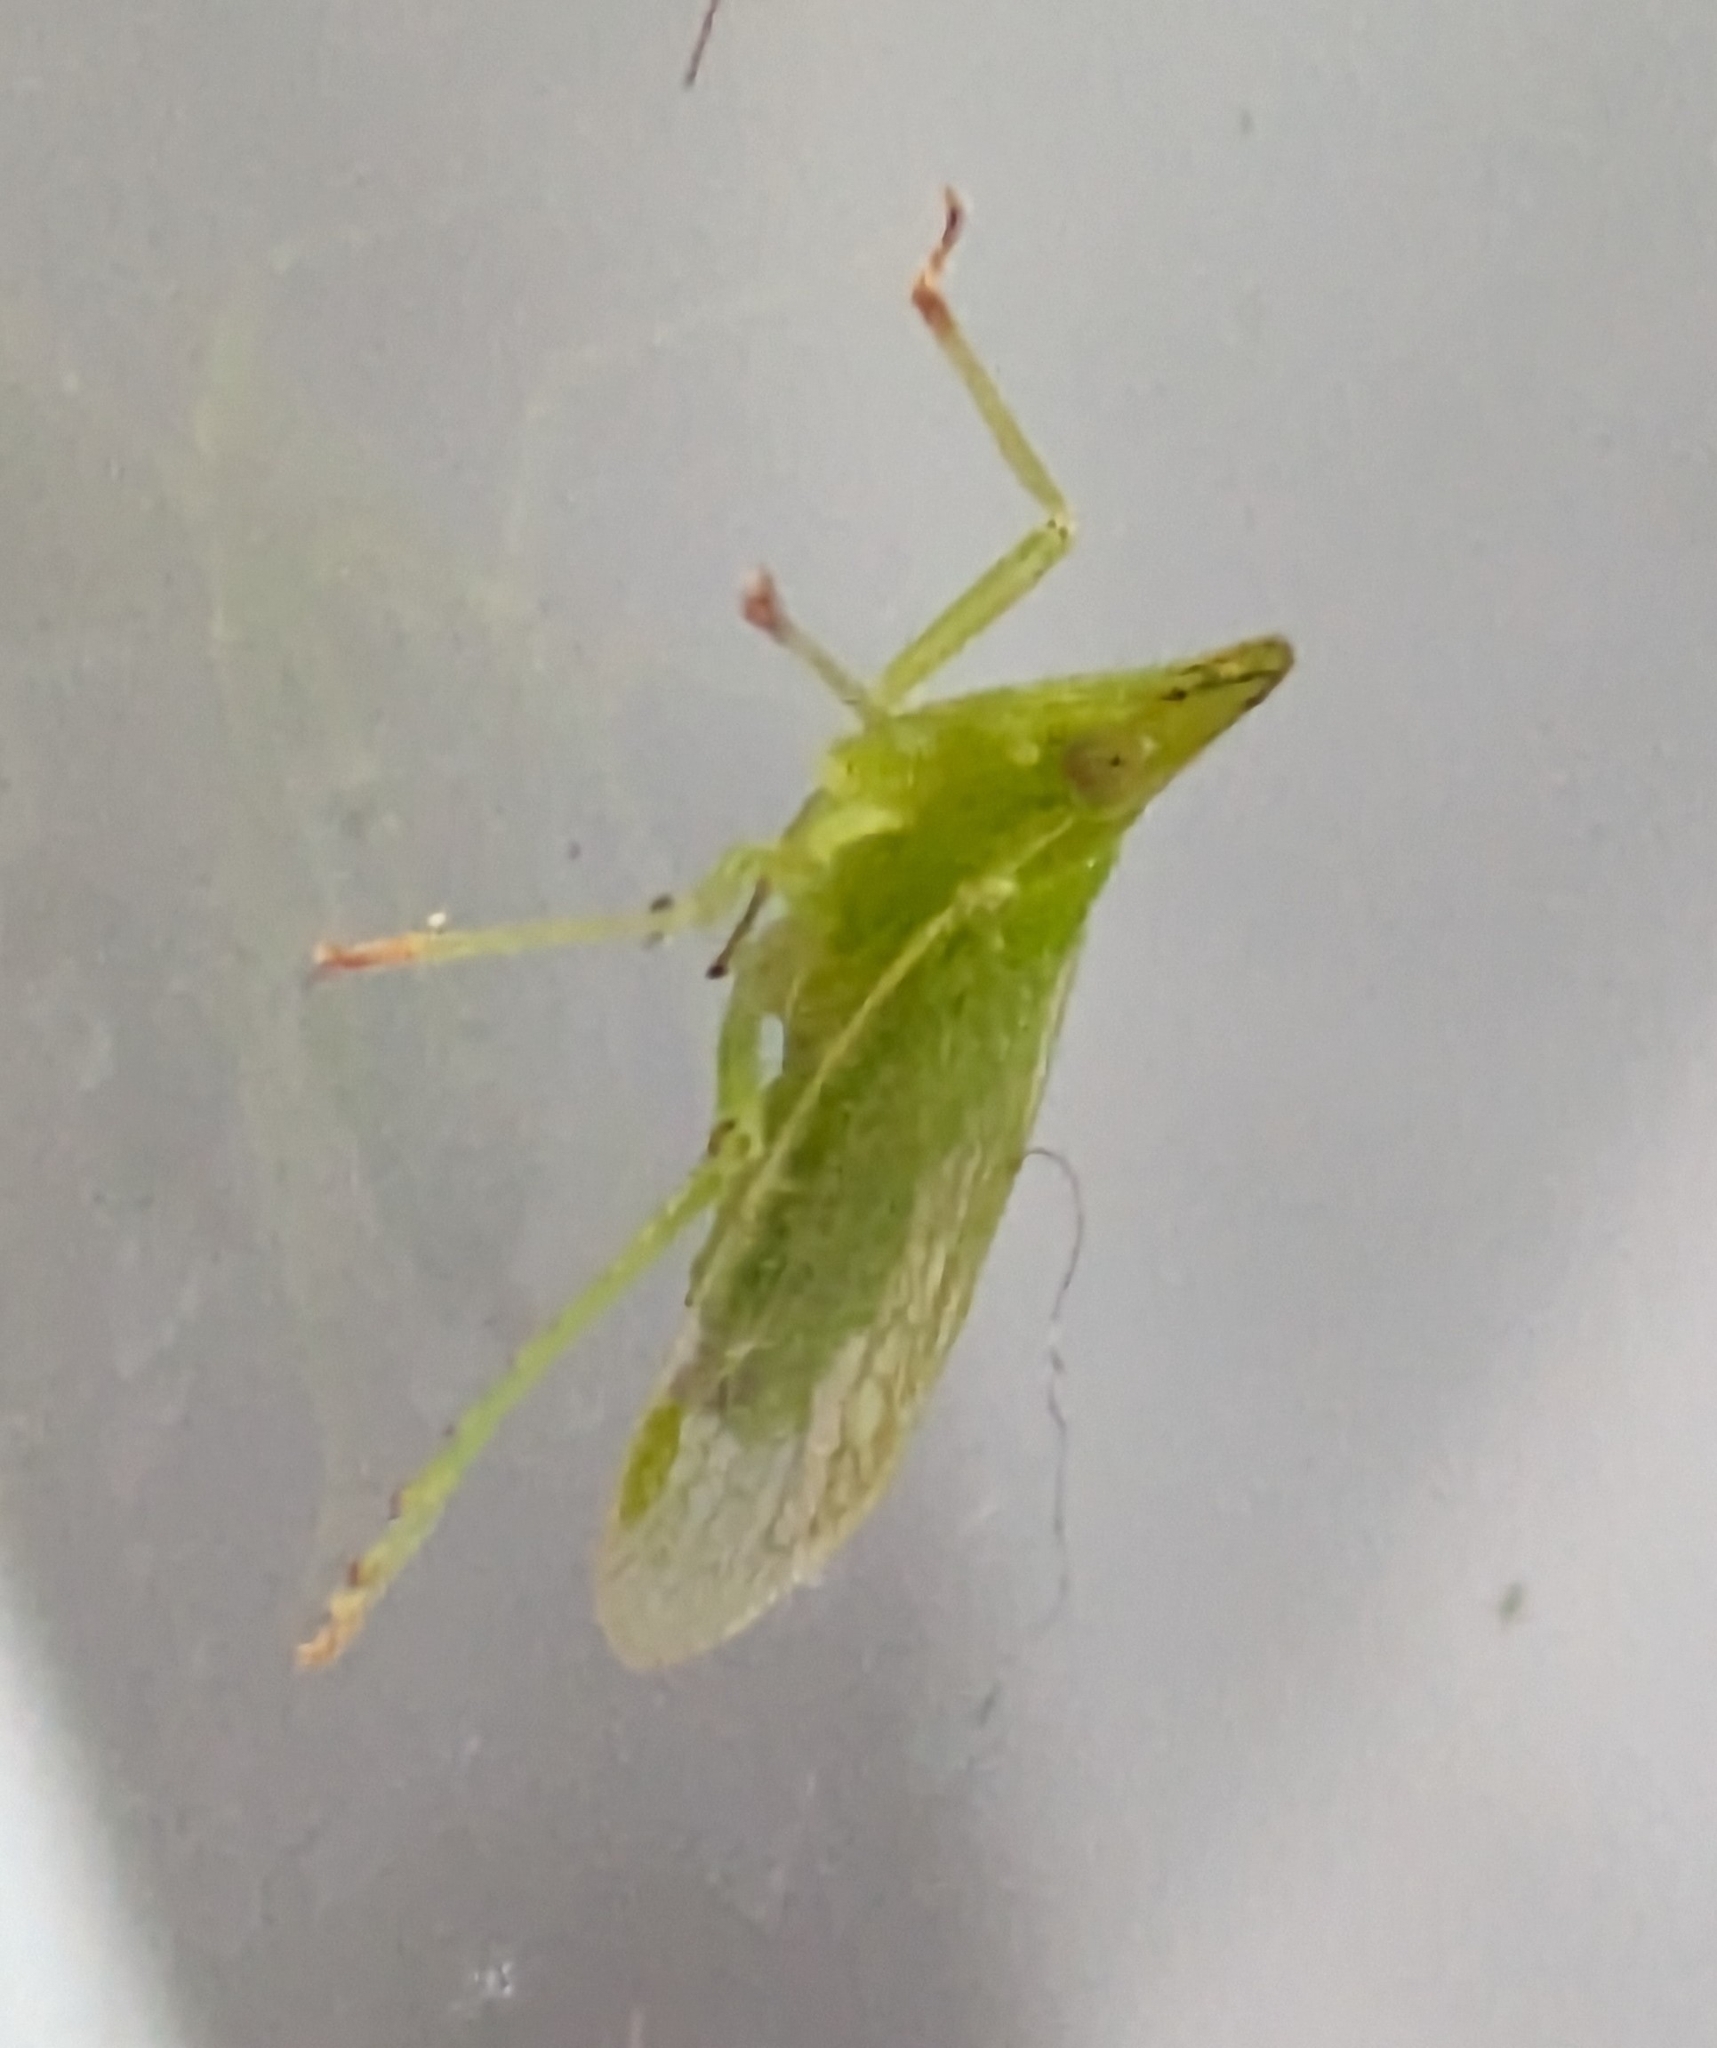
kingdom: Animalia
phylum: Arthropoda
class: Insecta
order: Hemiptera
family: Dictyopharidae
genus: Dictyophara
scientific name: Dictyophara europaea
